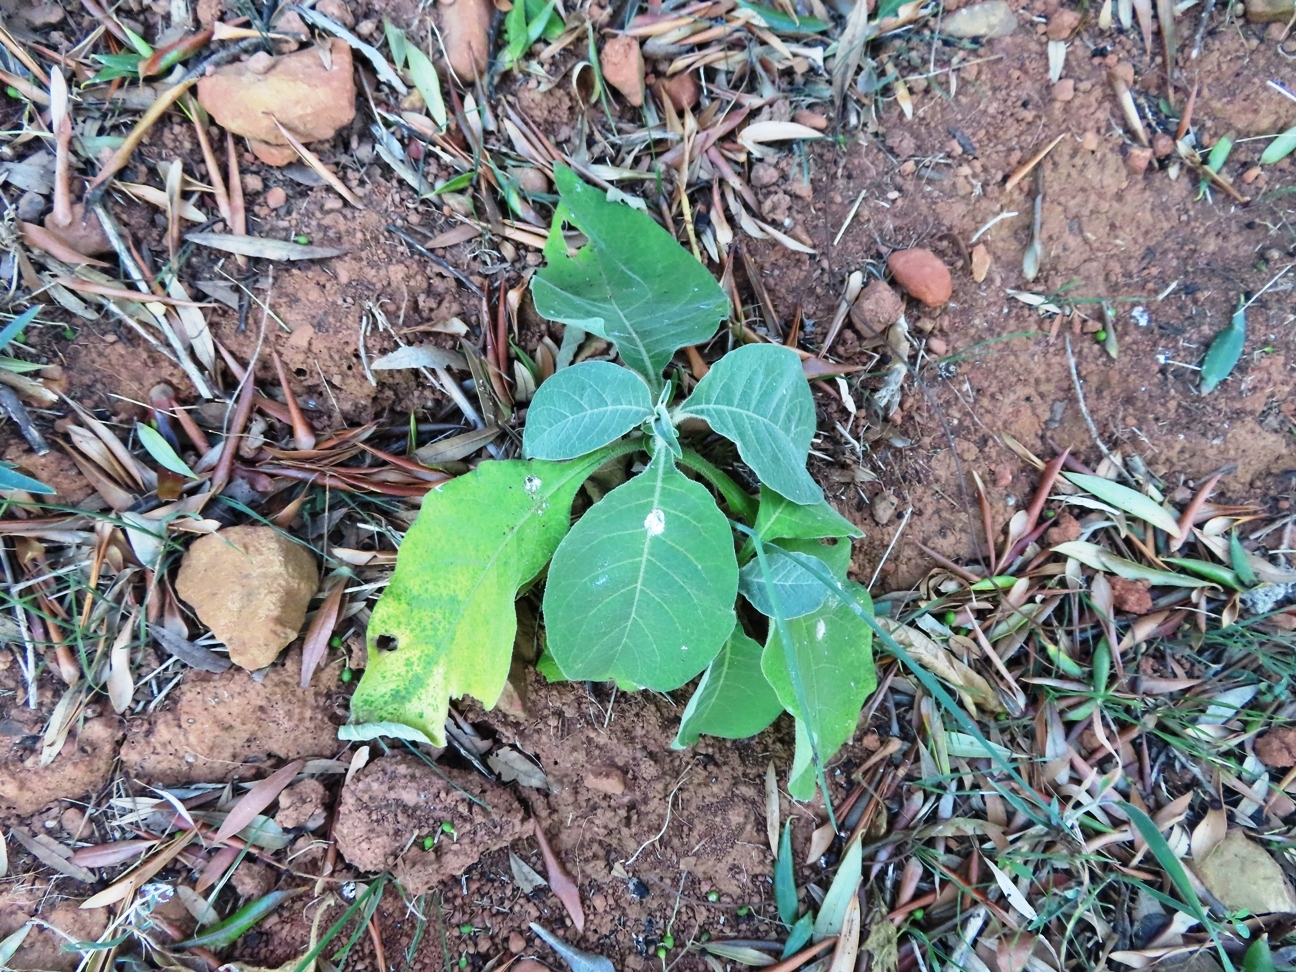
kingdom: Plantae
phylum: Tracheophyta
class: Magnoliopsida
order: Solanales
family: Solanaceae
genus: Solanum
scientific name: Solanum mauritianum
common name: Earleaf nightshade
